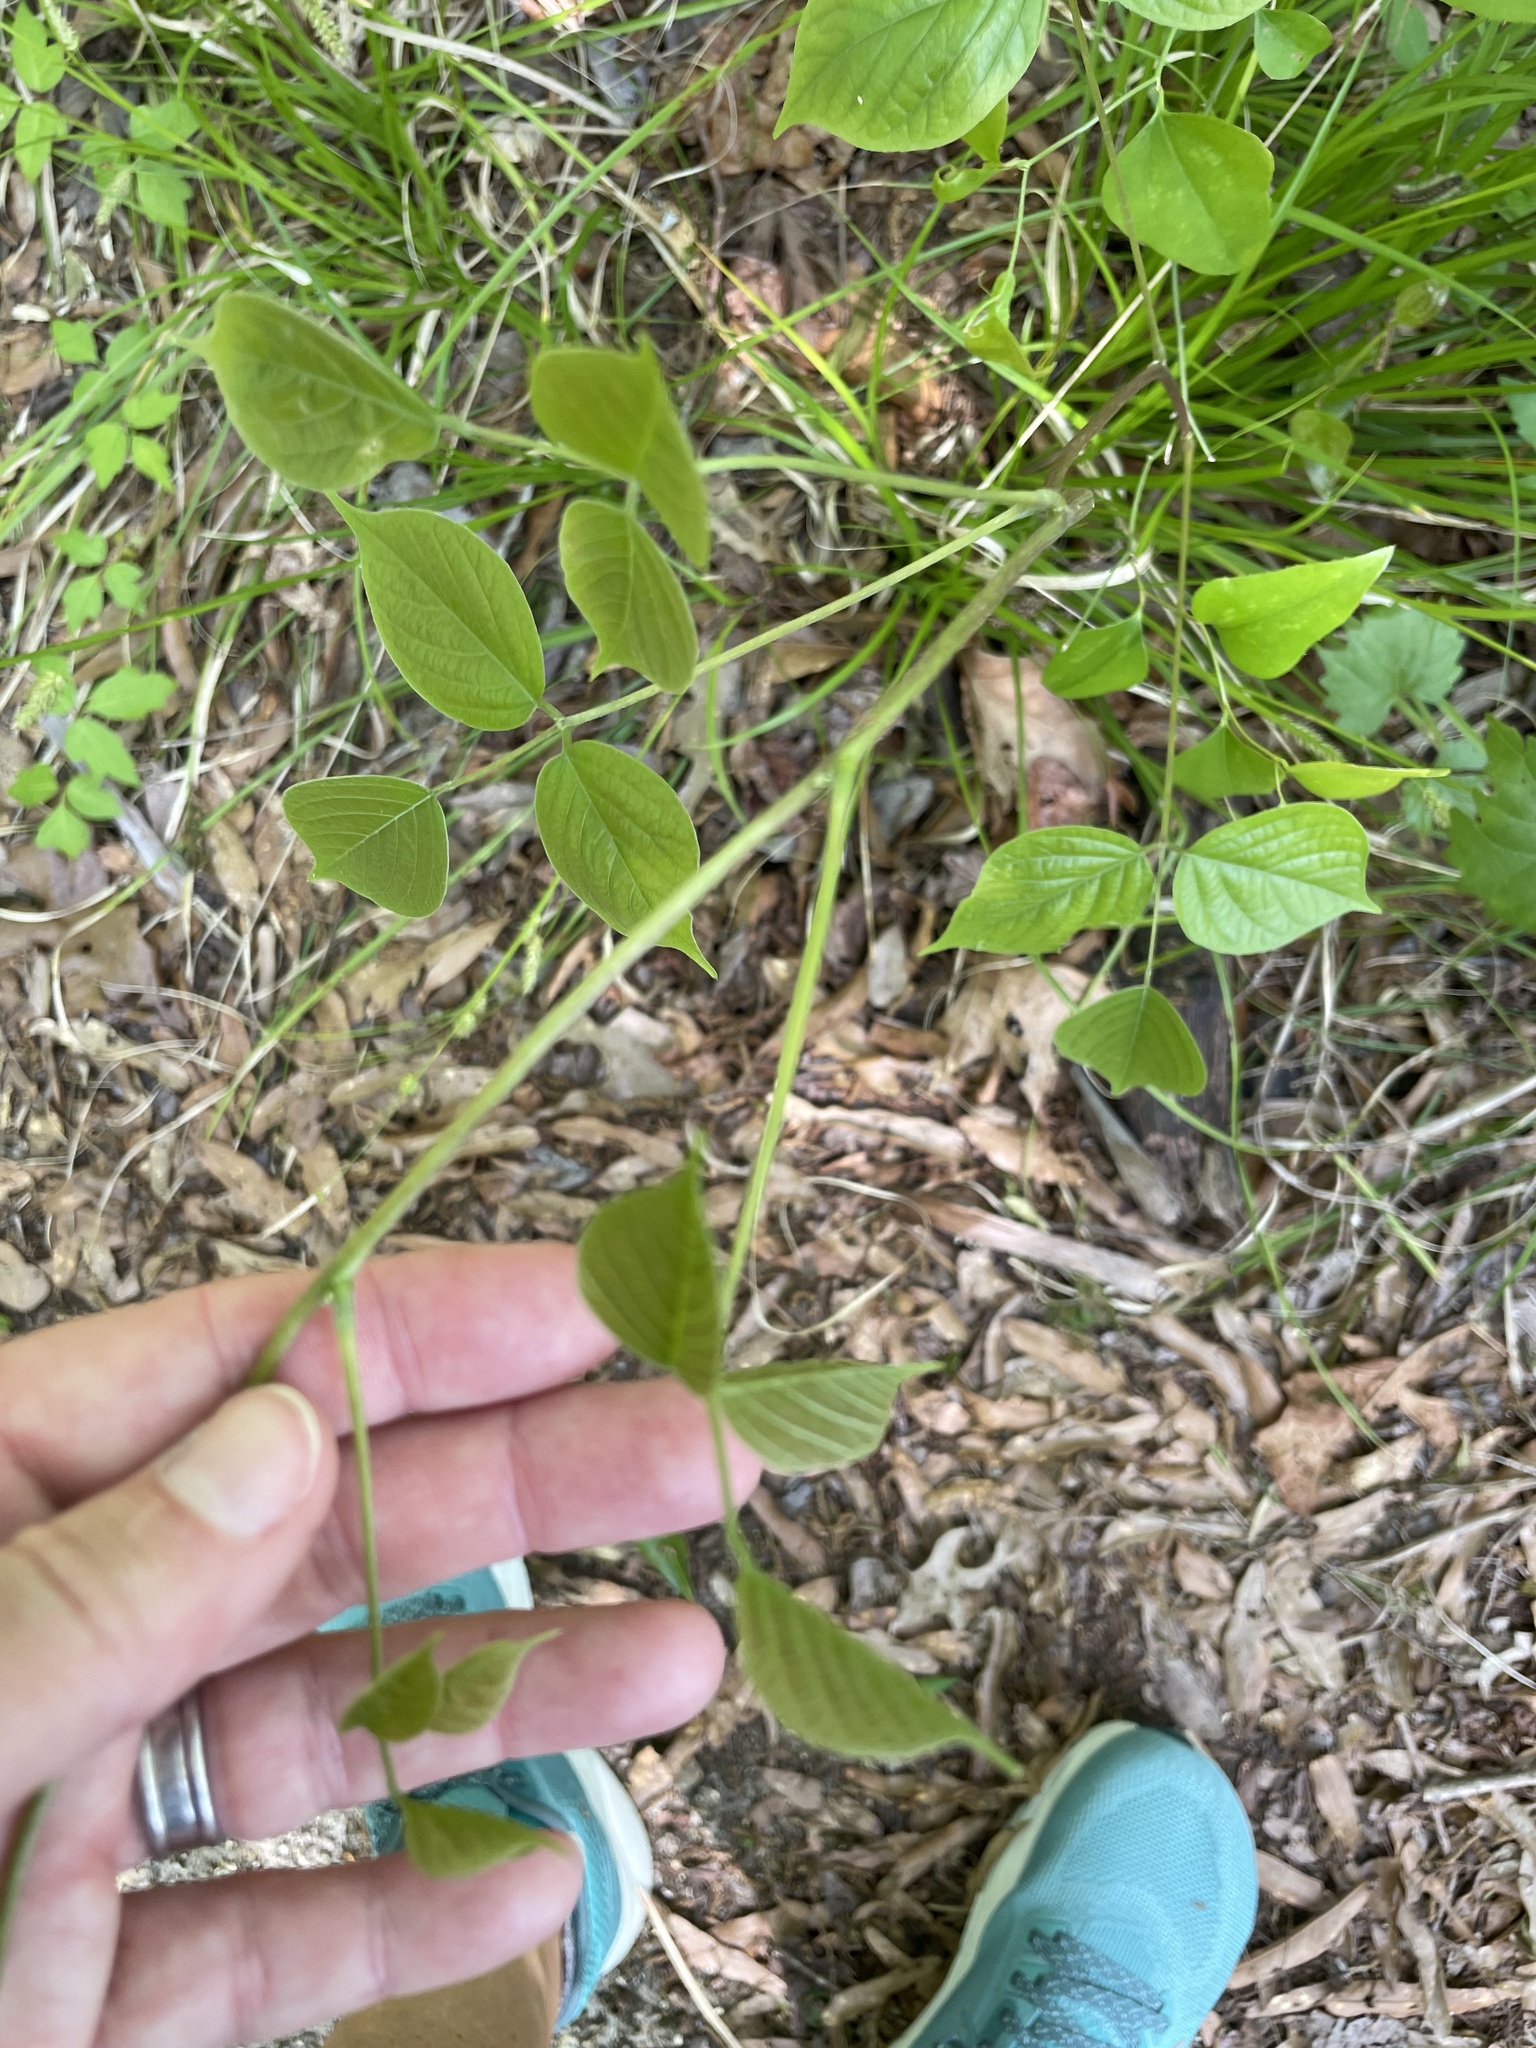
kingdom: Plantae
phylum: Tracheophyta
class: Magnoliopsida
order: Fabales
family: Fabaceae
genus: Lackeya
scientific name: Lackeya multiflora
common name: Boykin's clusterpea
